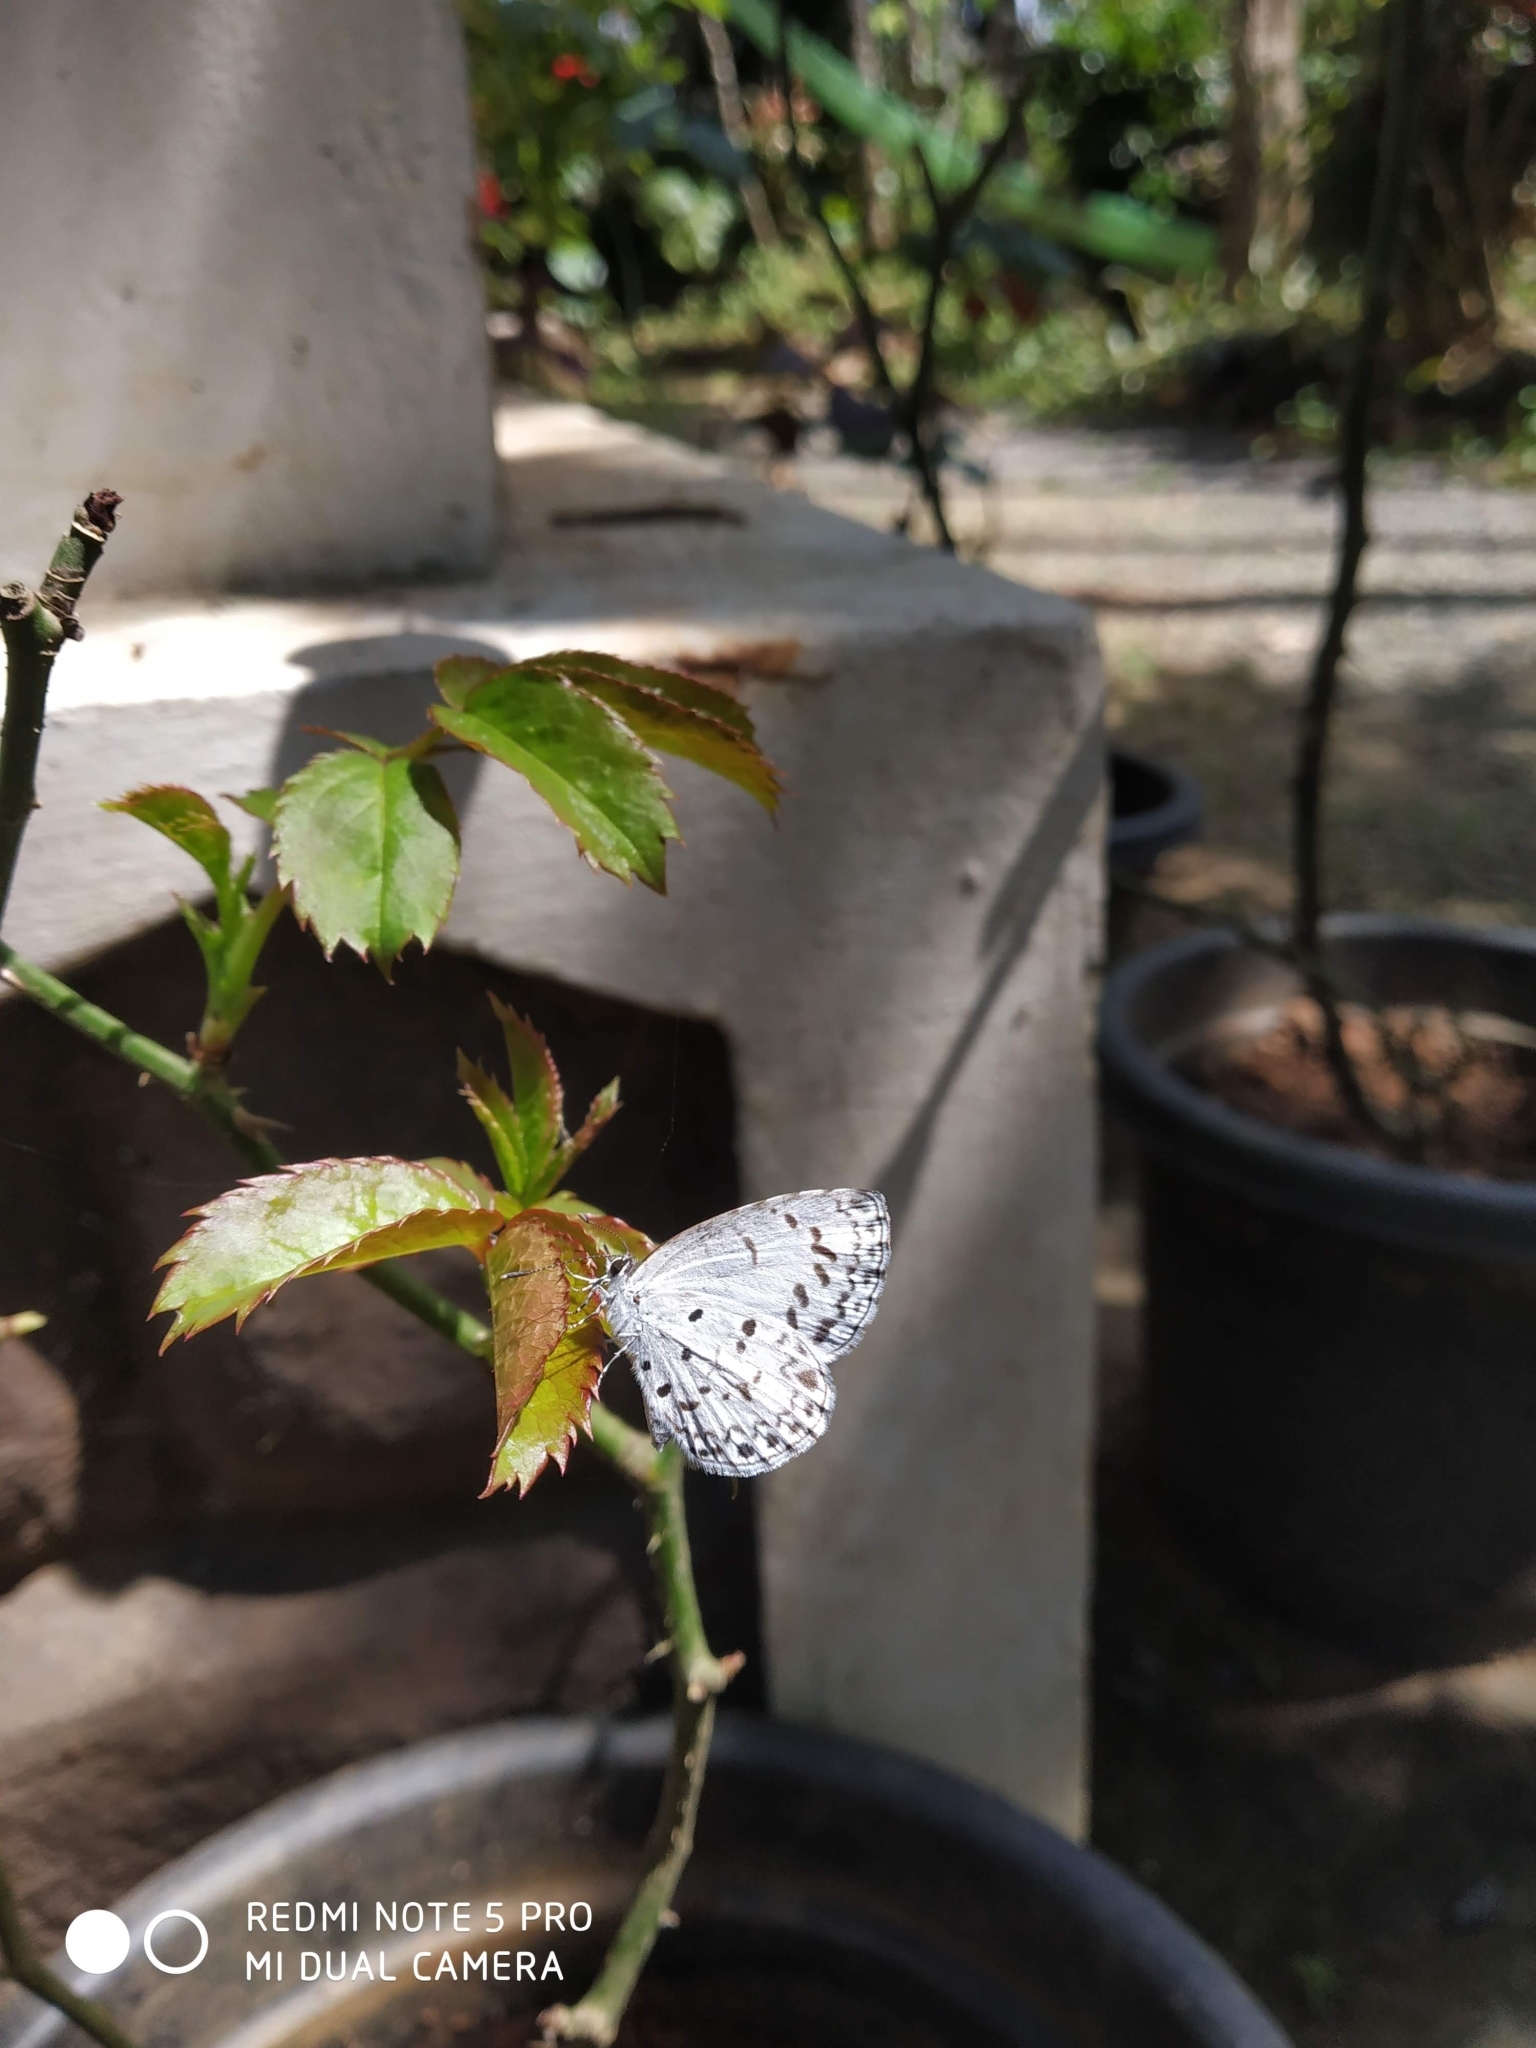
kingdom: Animalia
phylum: Arthropoda
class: Insecta
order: Lepidoptera
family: Lycaenidae
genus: Acytolepis
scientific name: Acytolepis puspa
